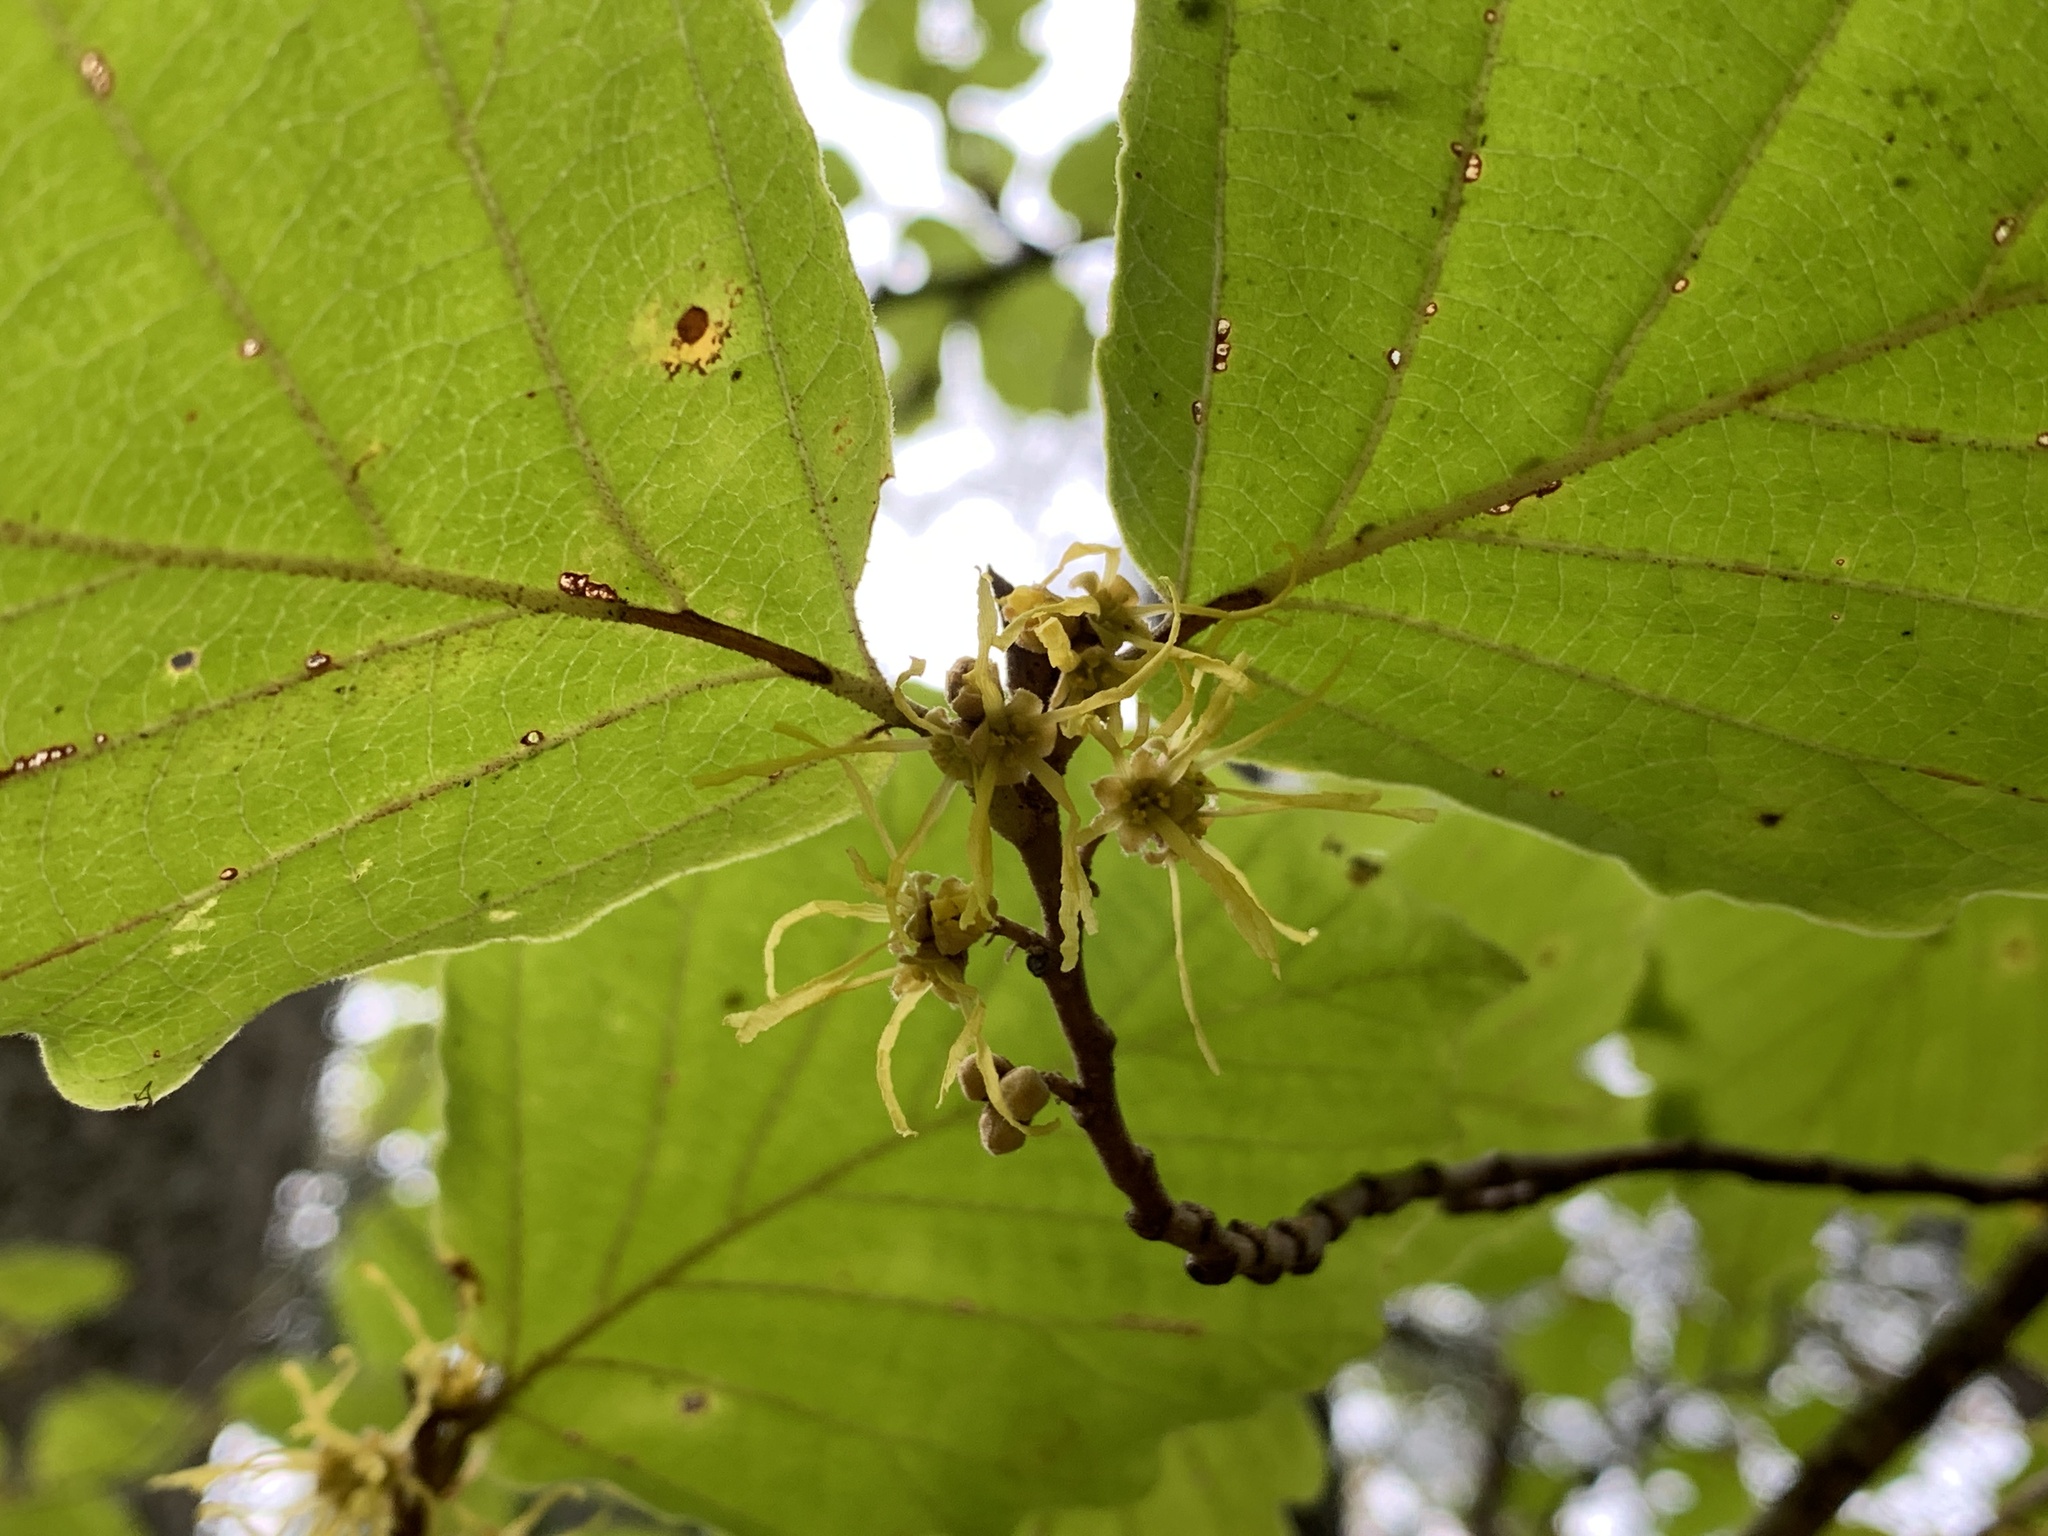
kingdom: Plantae
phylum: Tracheophyta
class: Magnoliopsida
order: Saxifragales
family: Hamamelidaceae
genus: Hamamelis
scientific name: Hamamelis virginiana
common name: Witch-hazel
